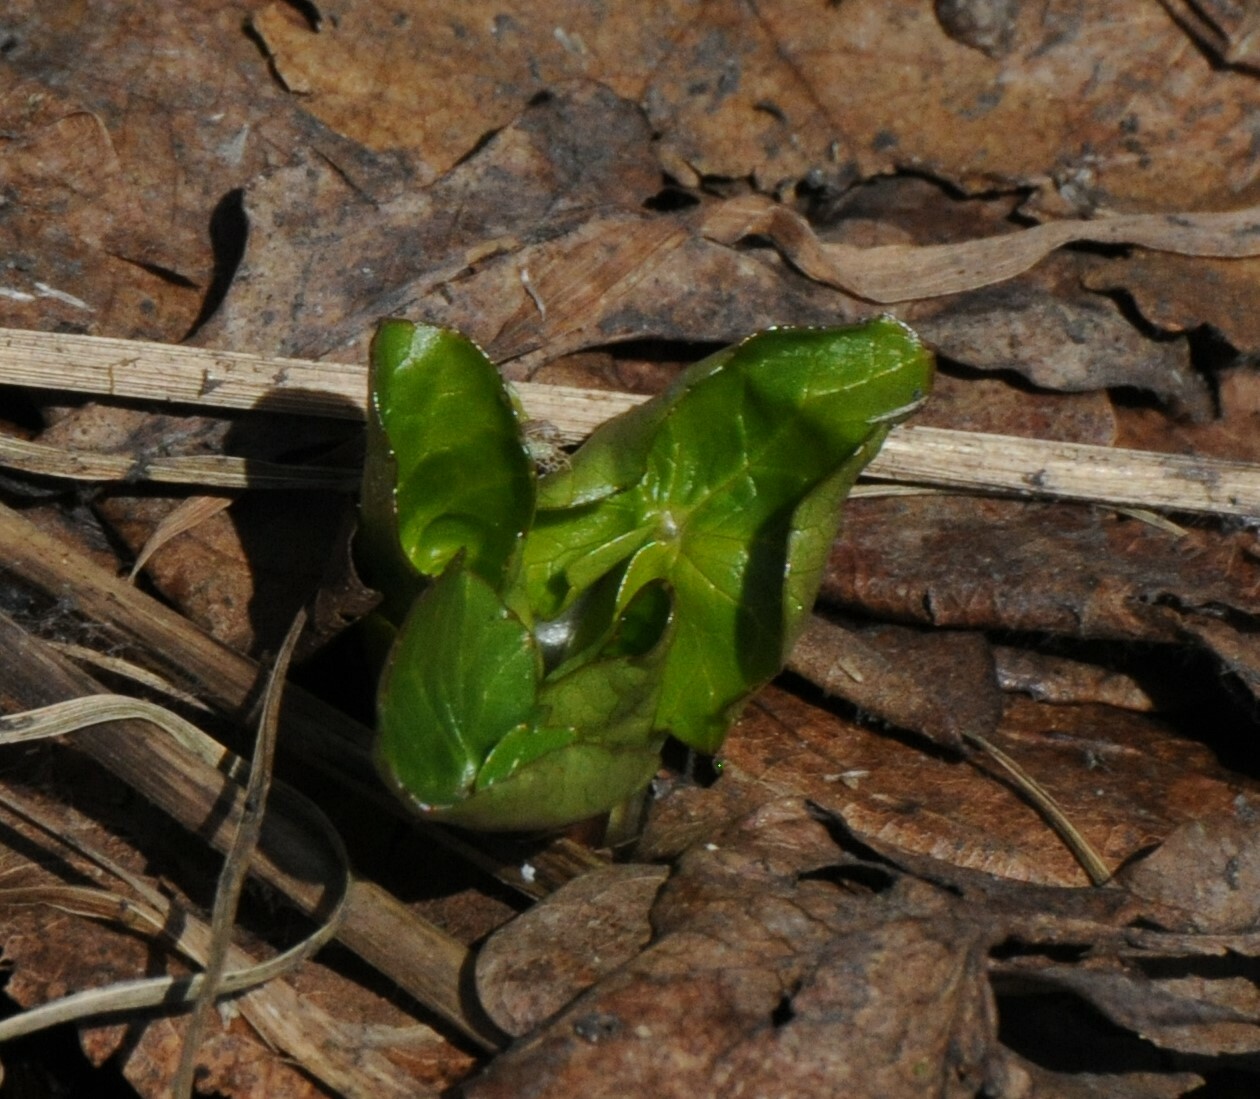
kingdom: Plantae
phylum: Tracheophyta
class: Magnoliopsida
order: Ranunculales
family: Ranunculaceae
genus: Ficaria
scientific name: Ficaria verna
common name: Lesser celandine
